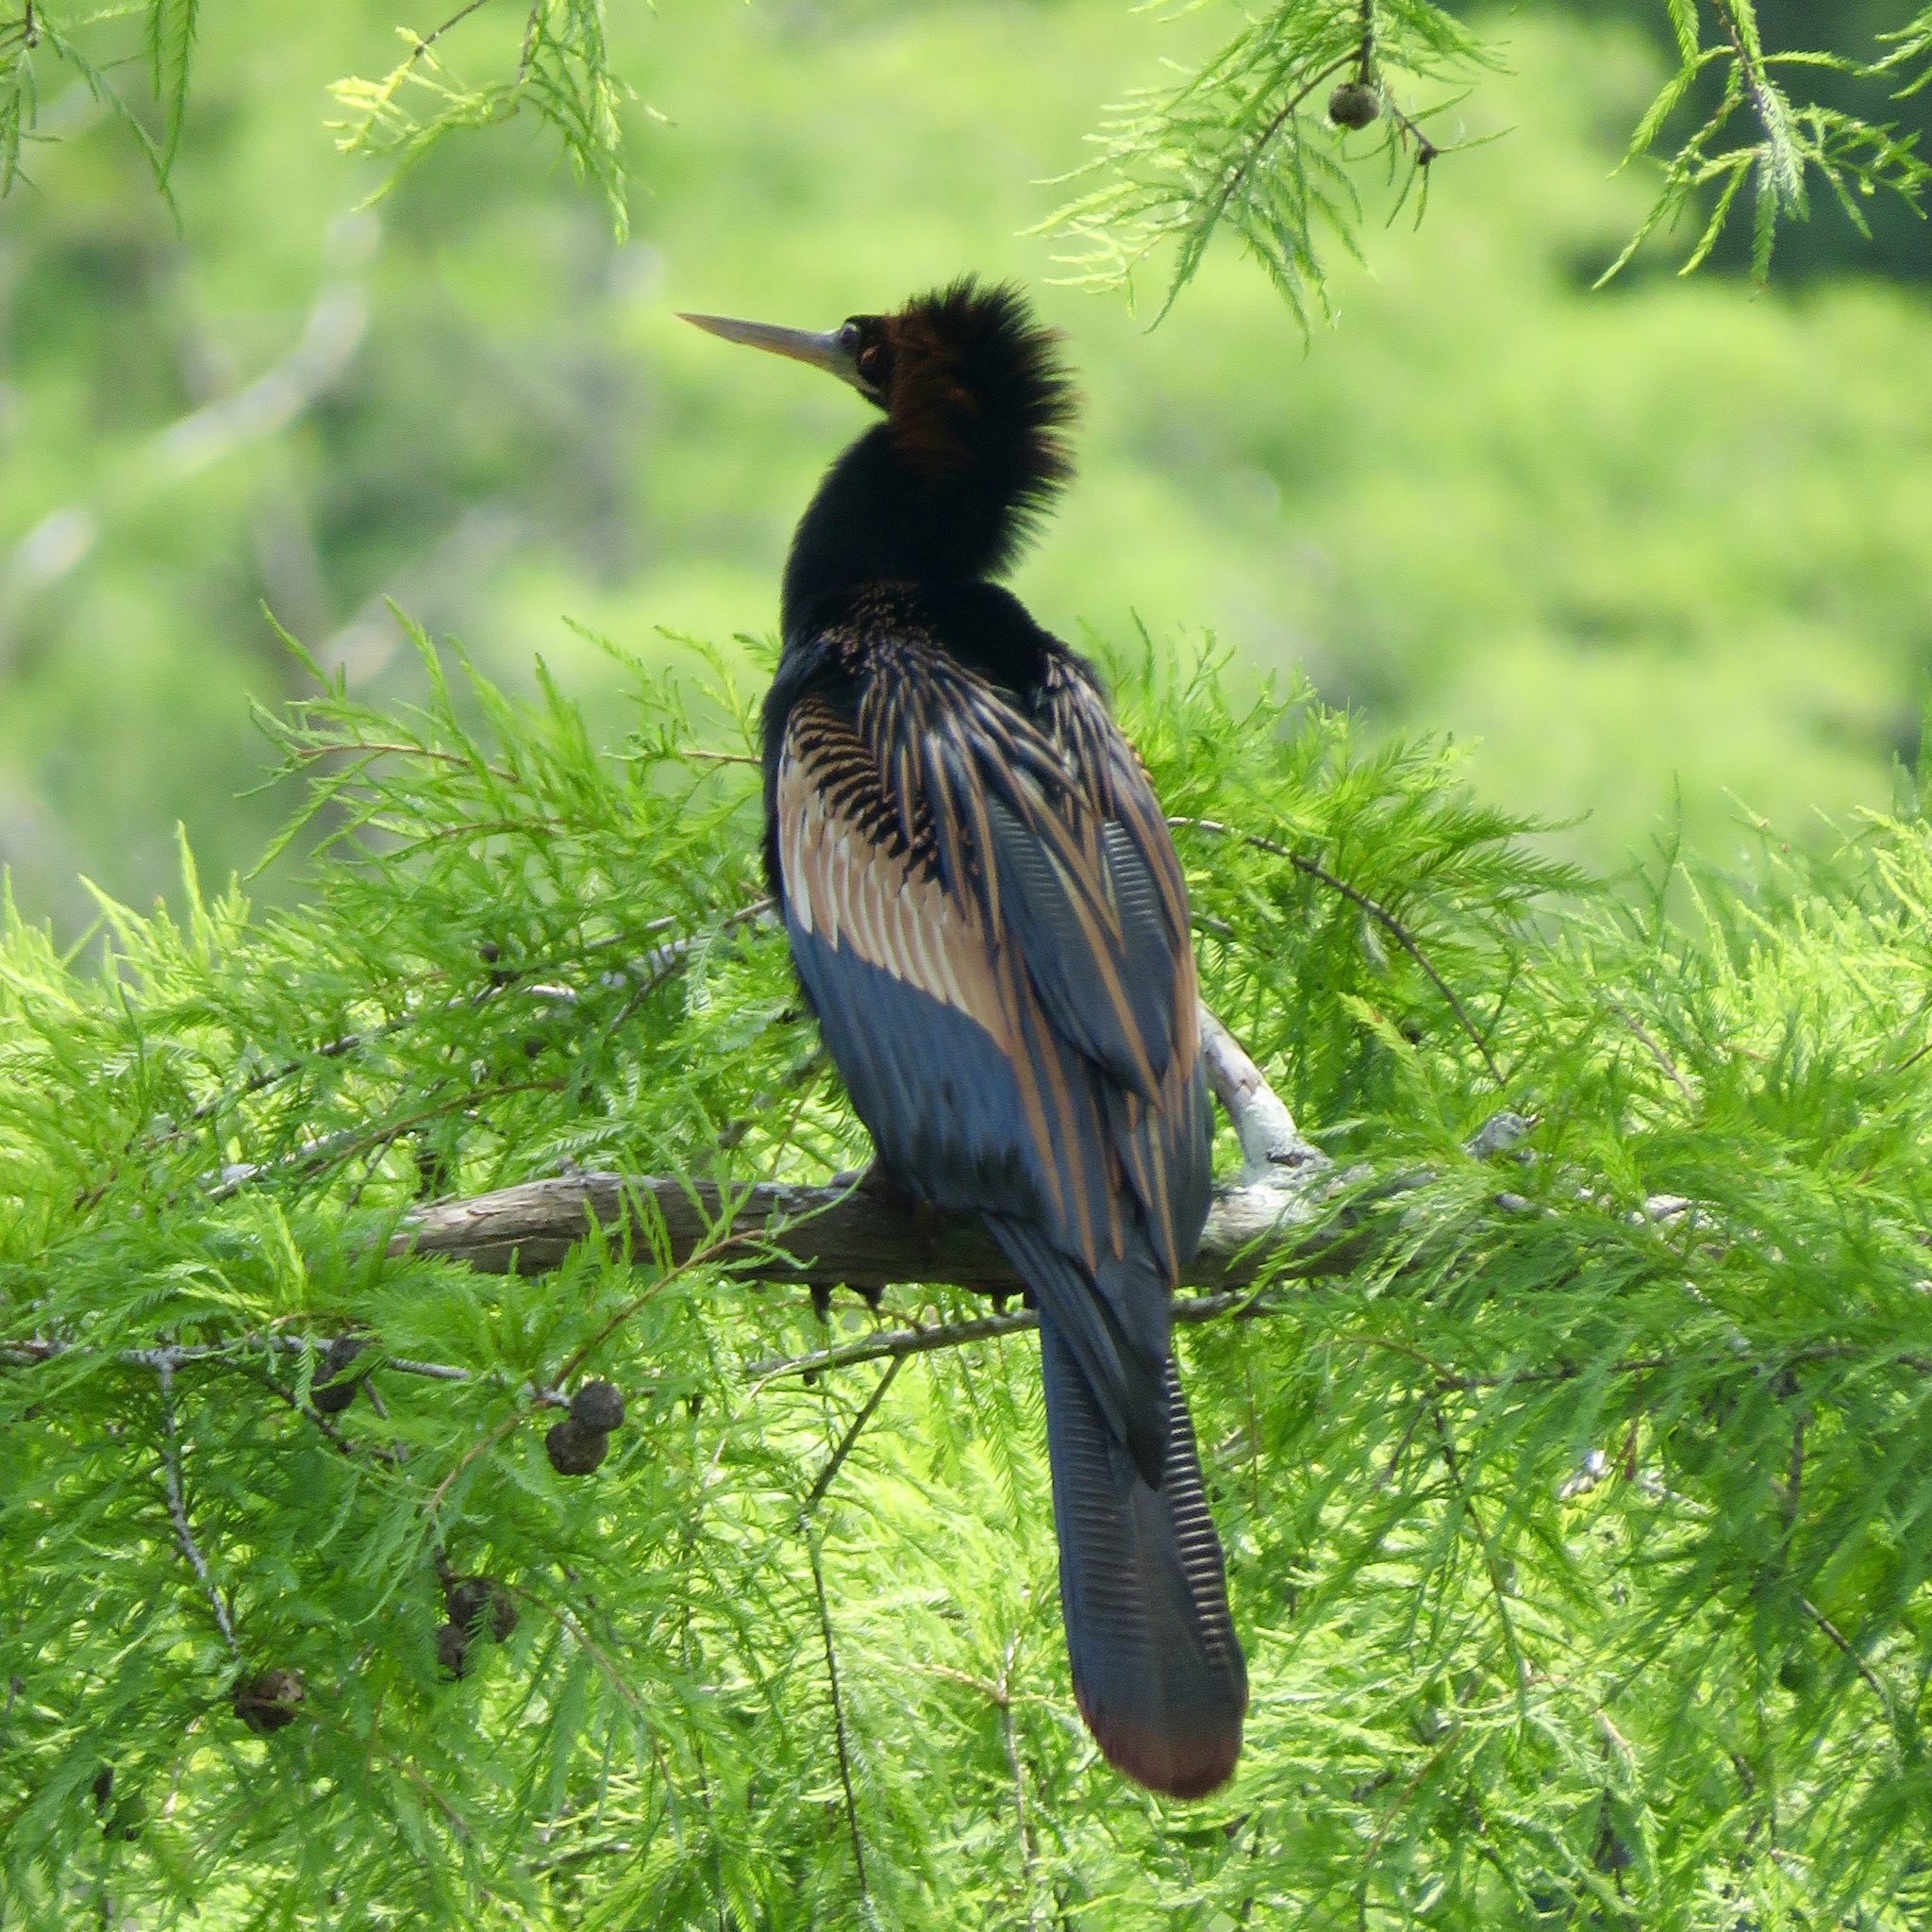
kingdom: Animalia
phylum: Chordata
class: Aves
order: Suliformes
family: Anhingidae
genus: Anhinga
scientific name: Anhinga anhinga
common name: Anhinga
